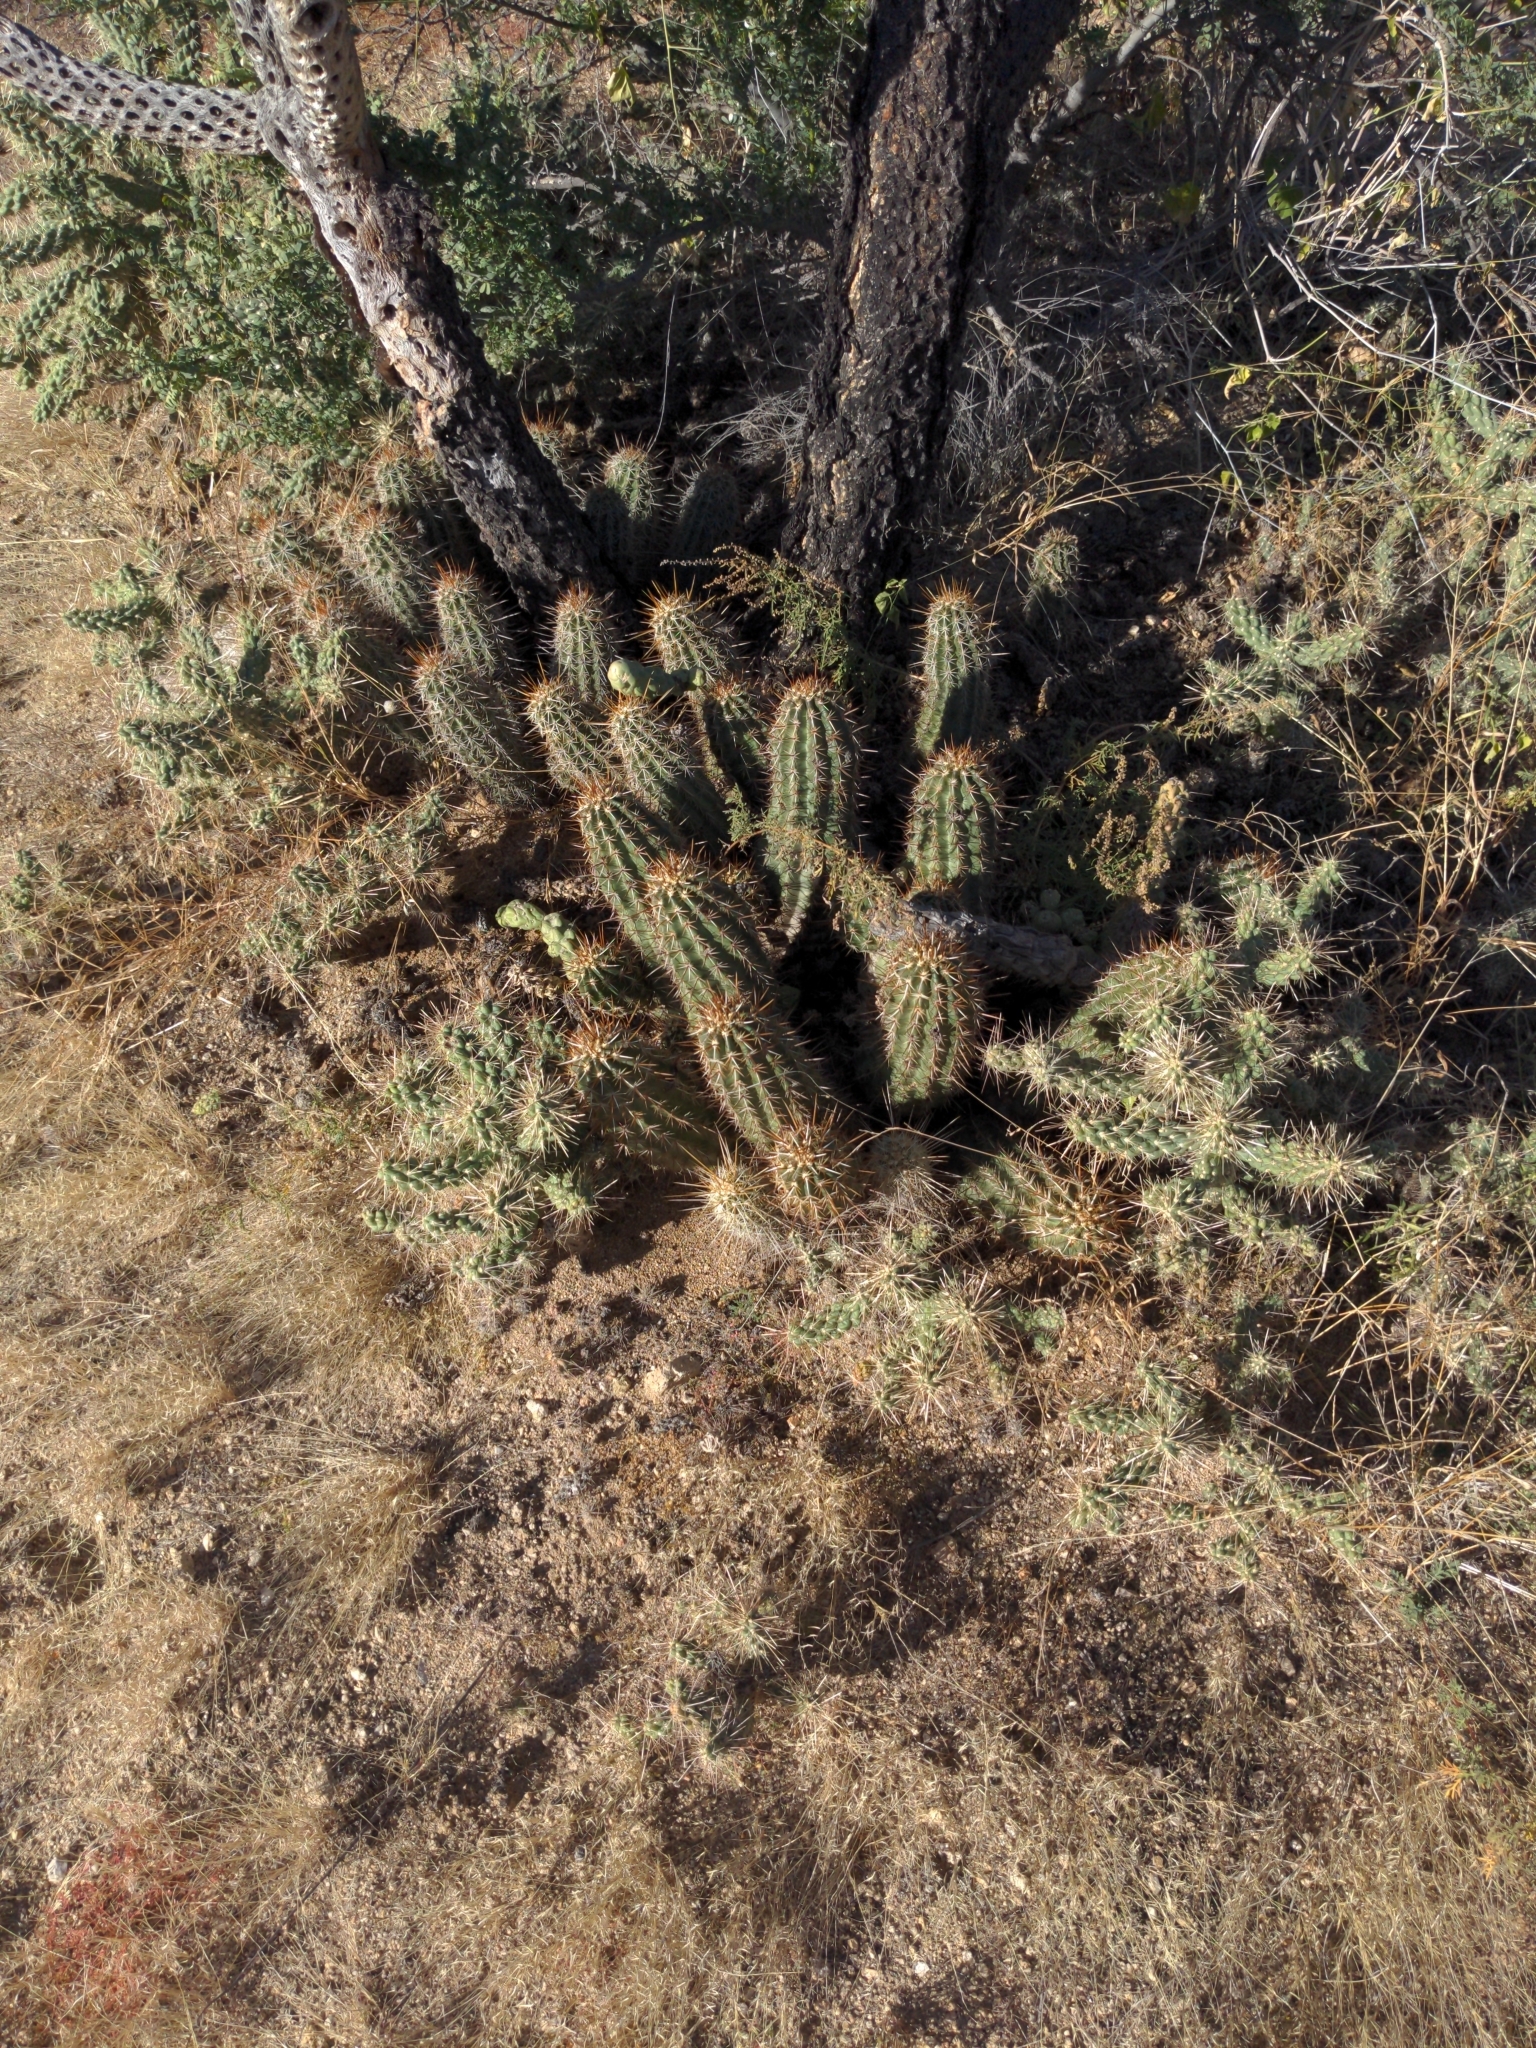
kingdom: Plantae
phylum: Tracheophyta
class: Magnoliopsida
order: Caryophyllales
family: Cactaceae
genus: Echinocereus
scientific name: Echinocereus engelmannii
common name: Engelmann's hedgehog cactus
